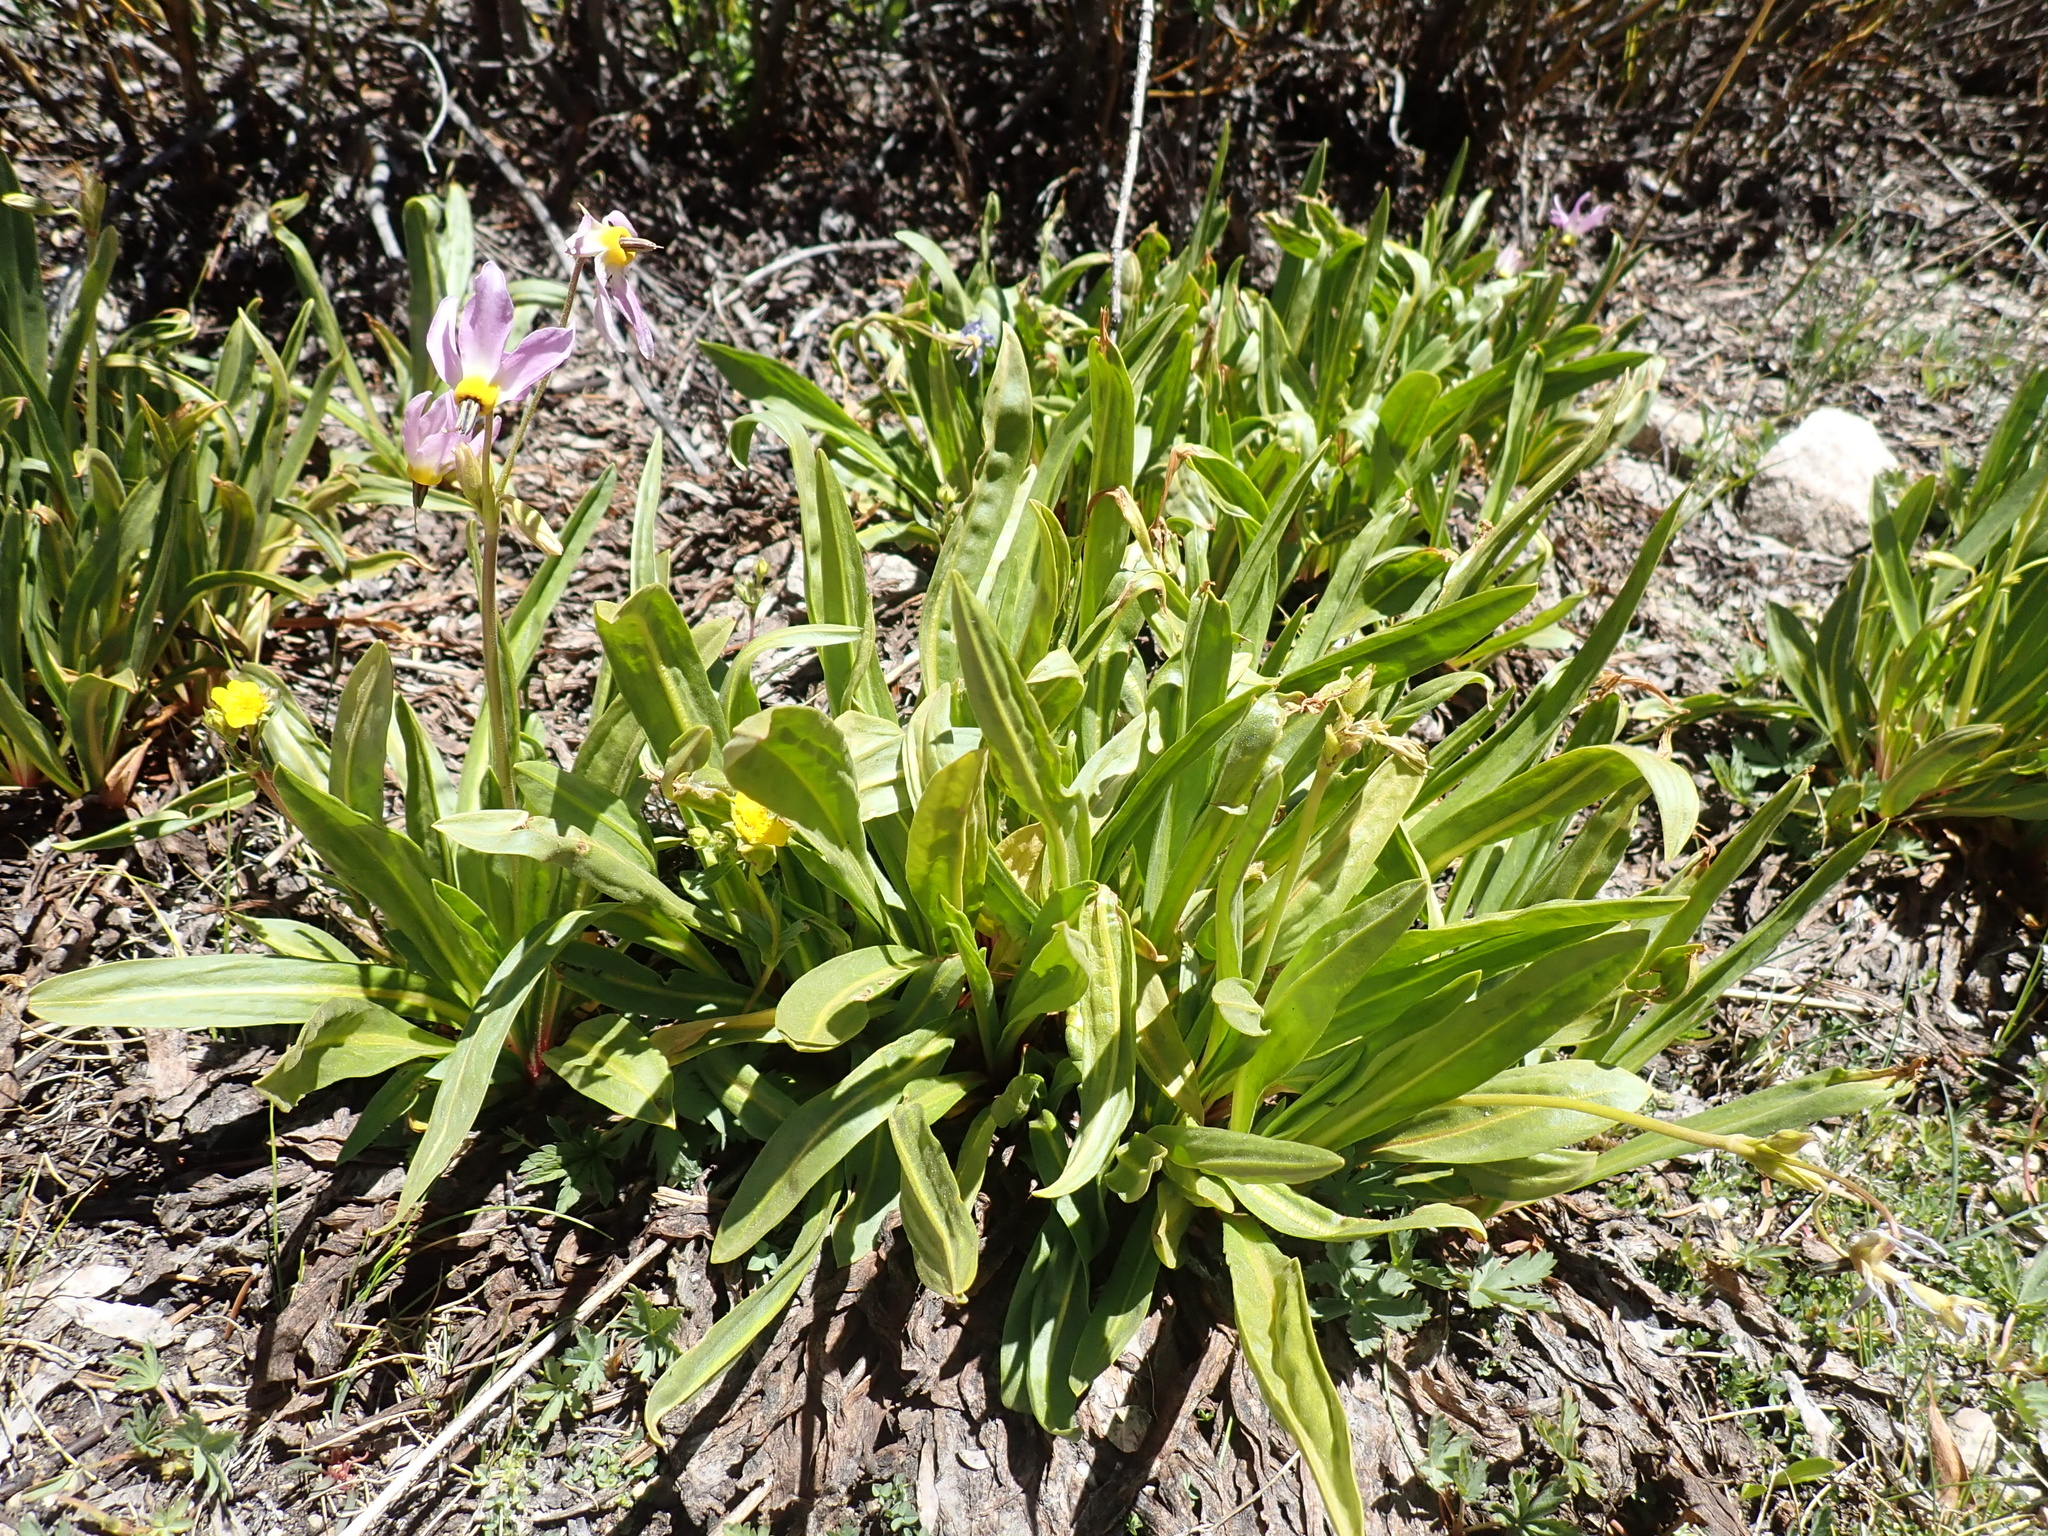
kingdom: Plantae
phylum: Tracheophyta
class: Magnoliopsida
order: Ericales
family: Primulaceae
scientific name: Primulaceae
